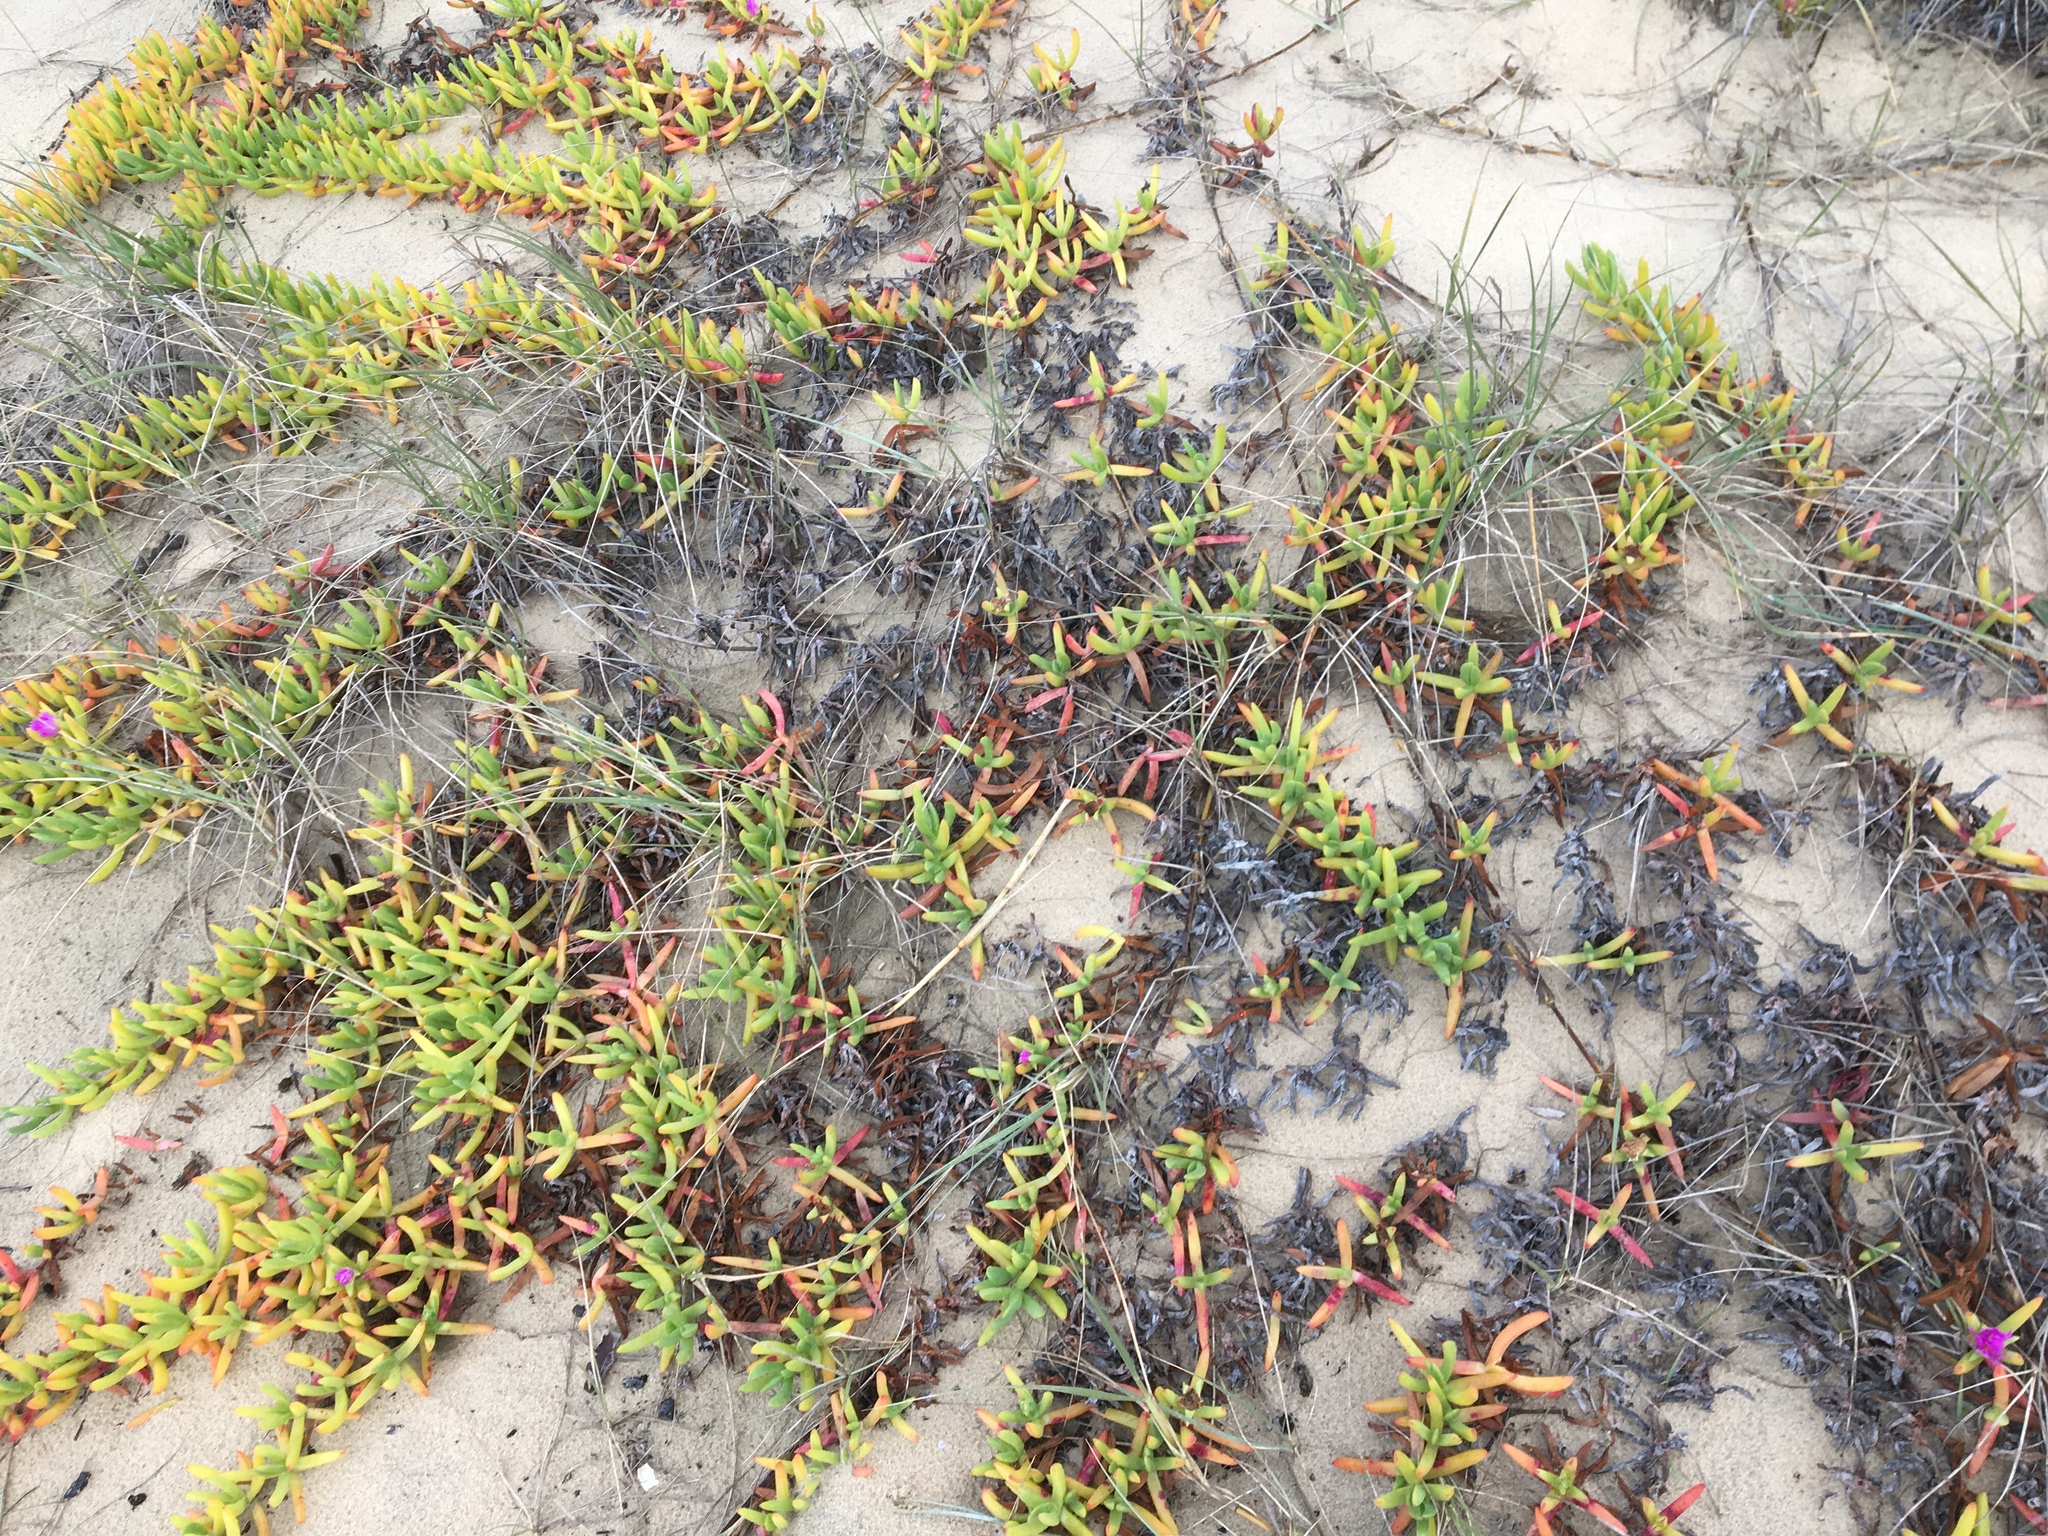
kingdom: Plantae
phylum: Tracheophyta
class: Magnoliopsida
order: Caryophyllales
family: Aizoaceae
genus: Carpobrotus
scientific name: Carpobrotus glaucescens
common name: Angular sea-fig
